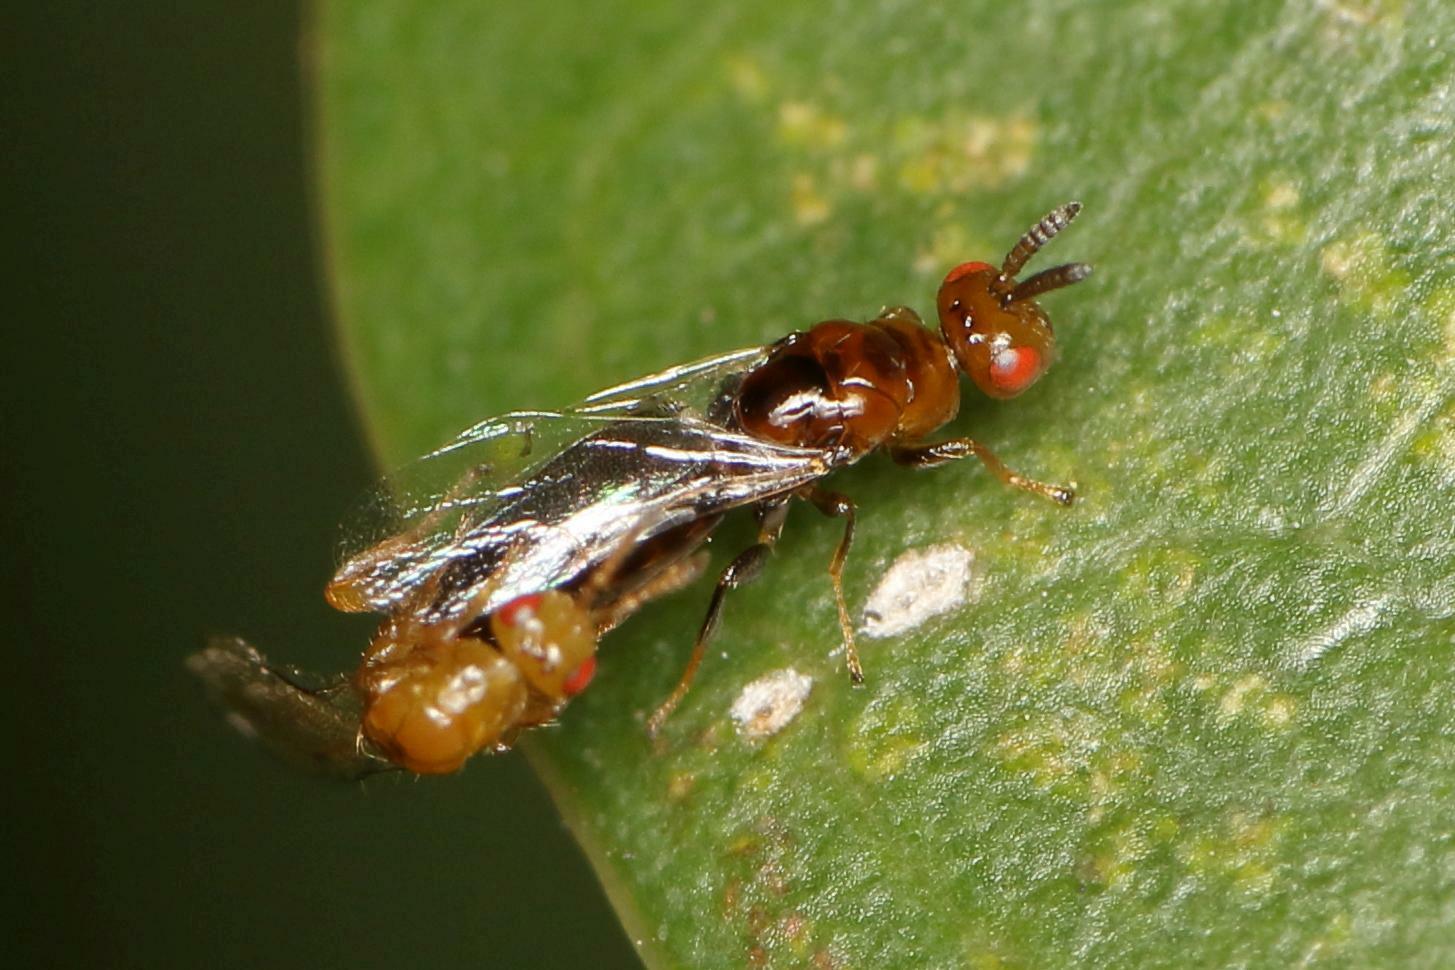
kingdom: Animalia
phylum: Arthropoda
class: Insecta
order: Hymenoptera
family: Agaonidae
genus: Lachaisea
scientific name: Lachaisea brevimucro
